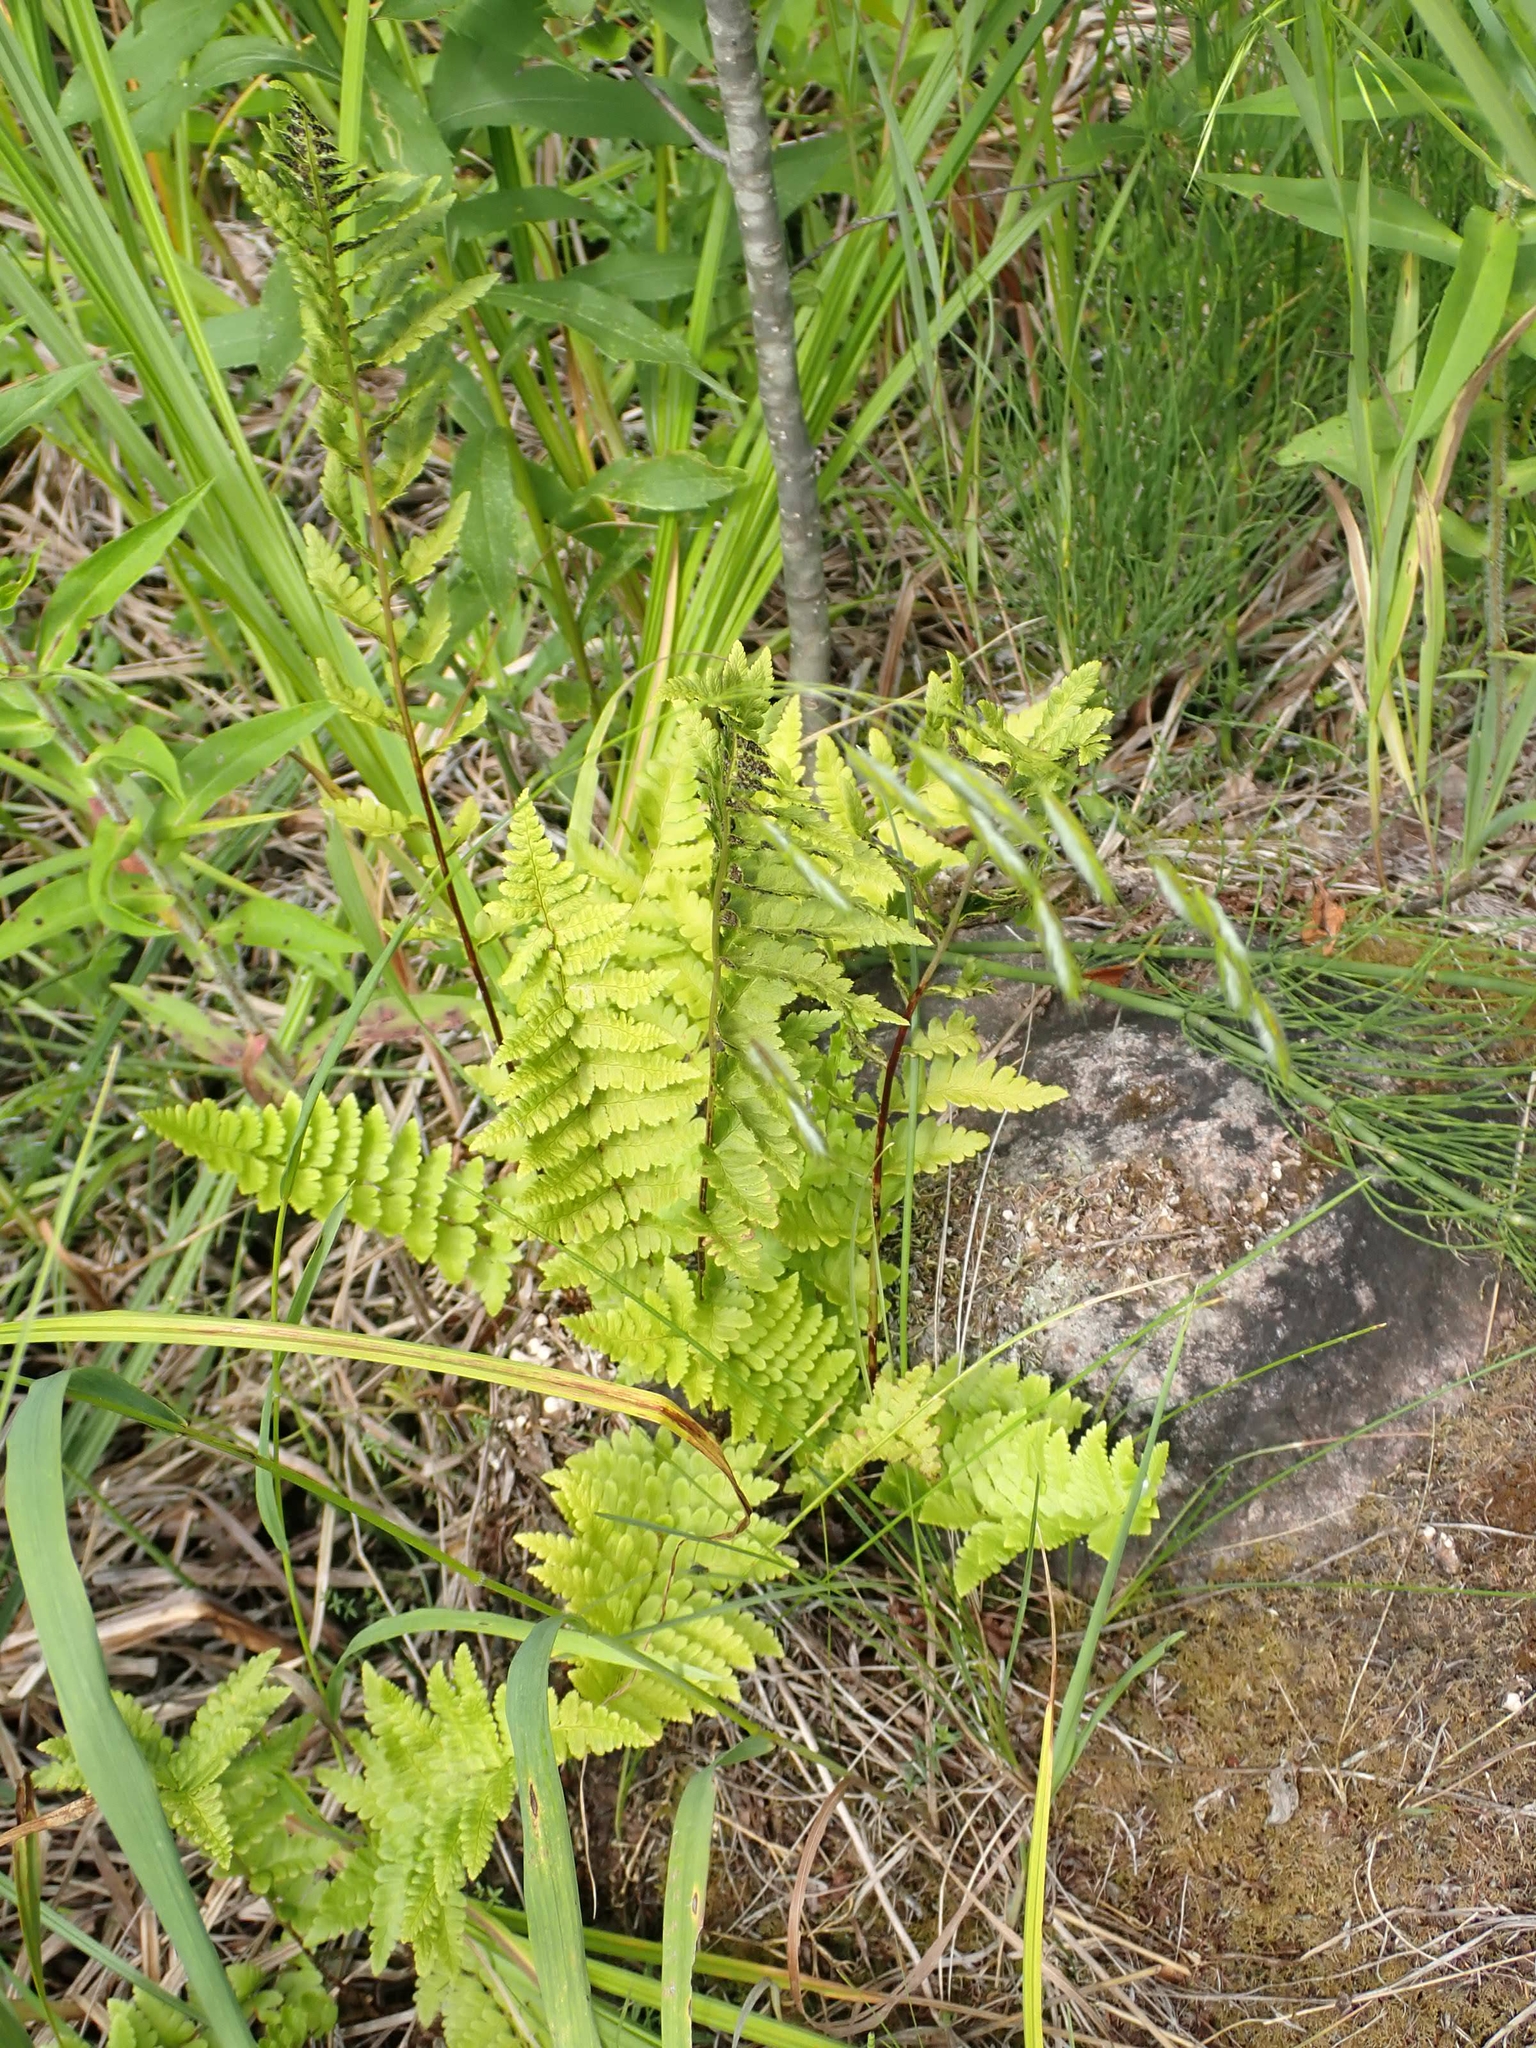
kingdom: Plantae
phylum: Tracheophyta
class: Polypodiopsida
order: Polypodiales
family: Dryopteridaceae
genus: Dryopteris
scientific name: Dryopteris cristata
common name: Crested wood fern
